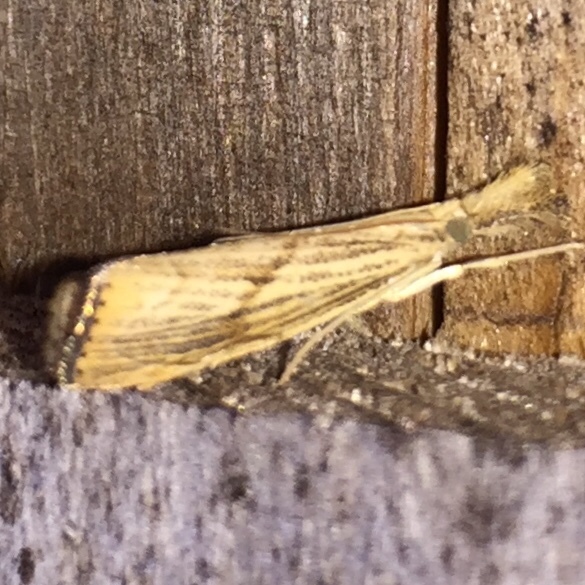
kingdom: Animalia
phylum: Arthropoda
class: Insecta
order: Lepidoptera
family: Crambidae
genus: Agriphila
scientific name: Agriphila ruricolellus
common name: Lesser vagabond sod webworm
